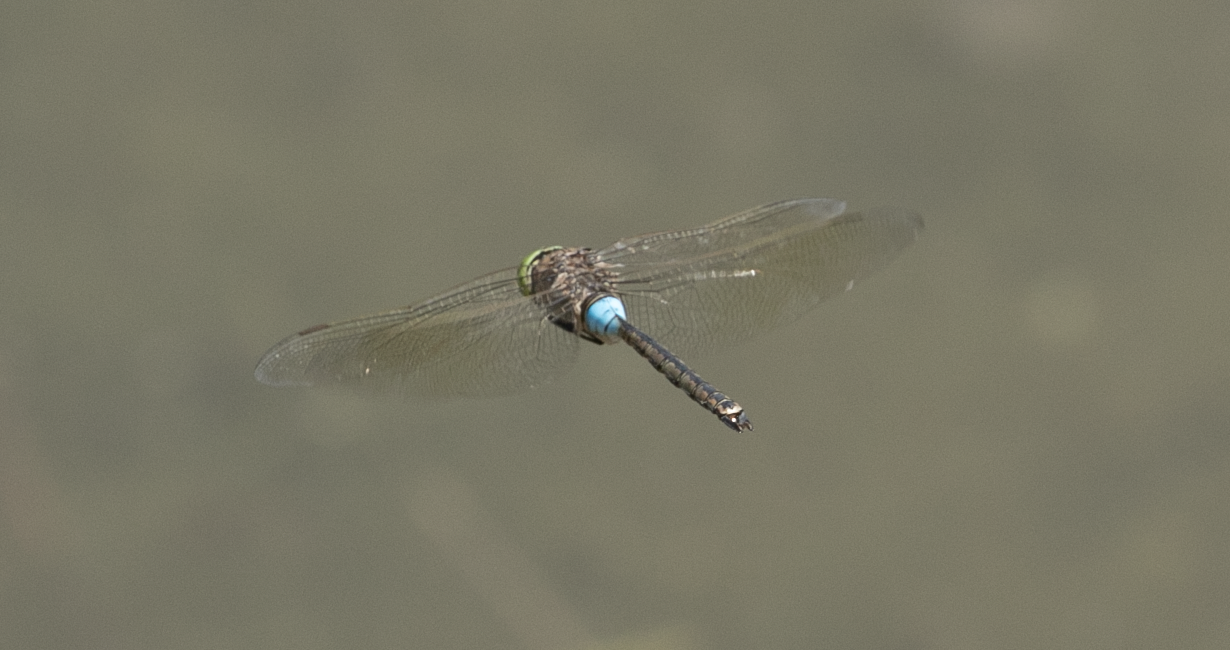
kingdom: Animalia
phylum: Arthropoda
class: Insecta
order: Odonata
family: Aeshnidae
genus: Anax
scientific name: Anax parthenope
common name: Lesser emperor
